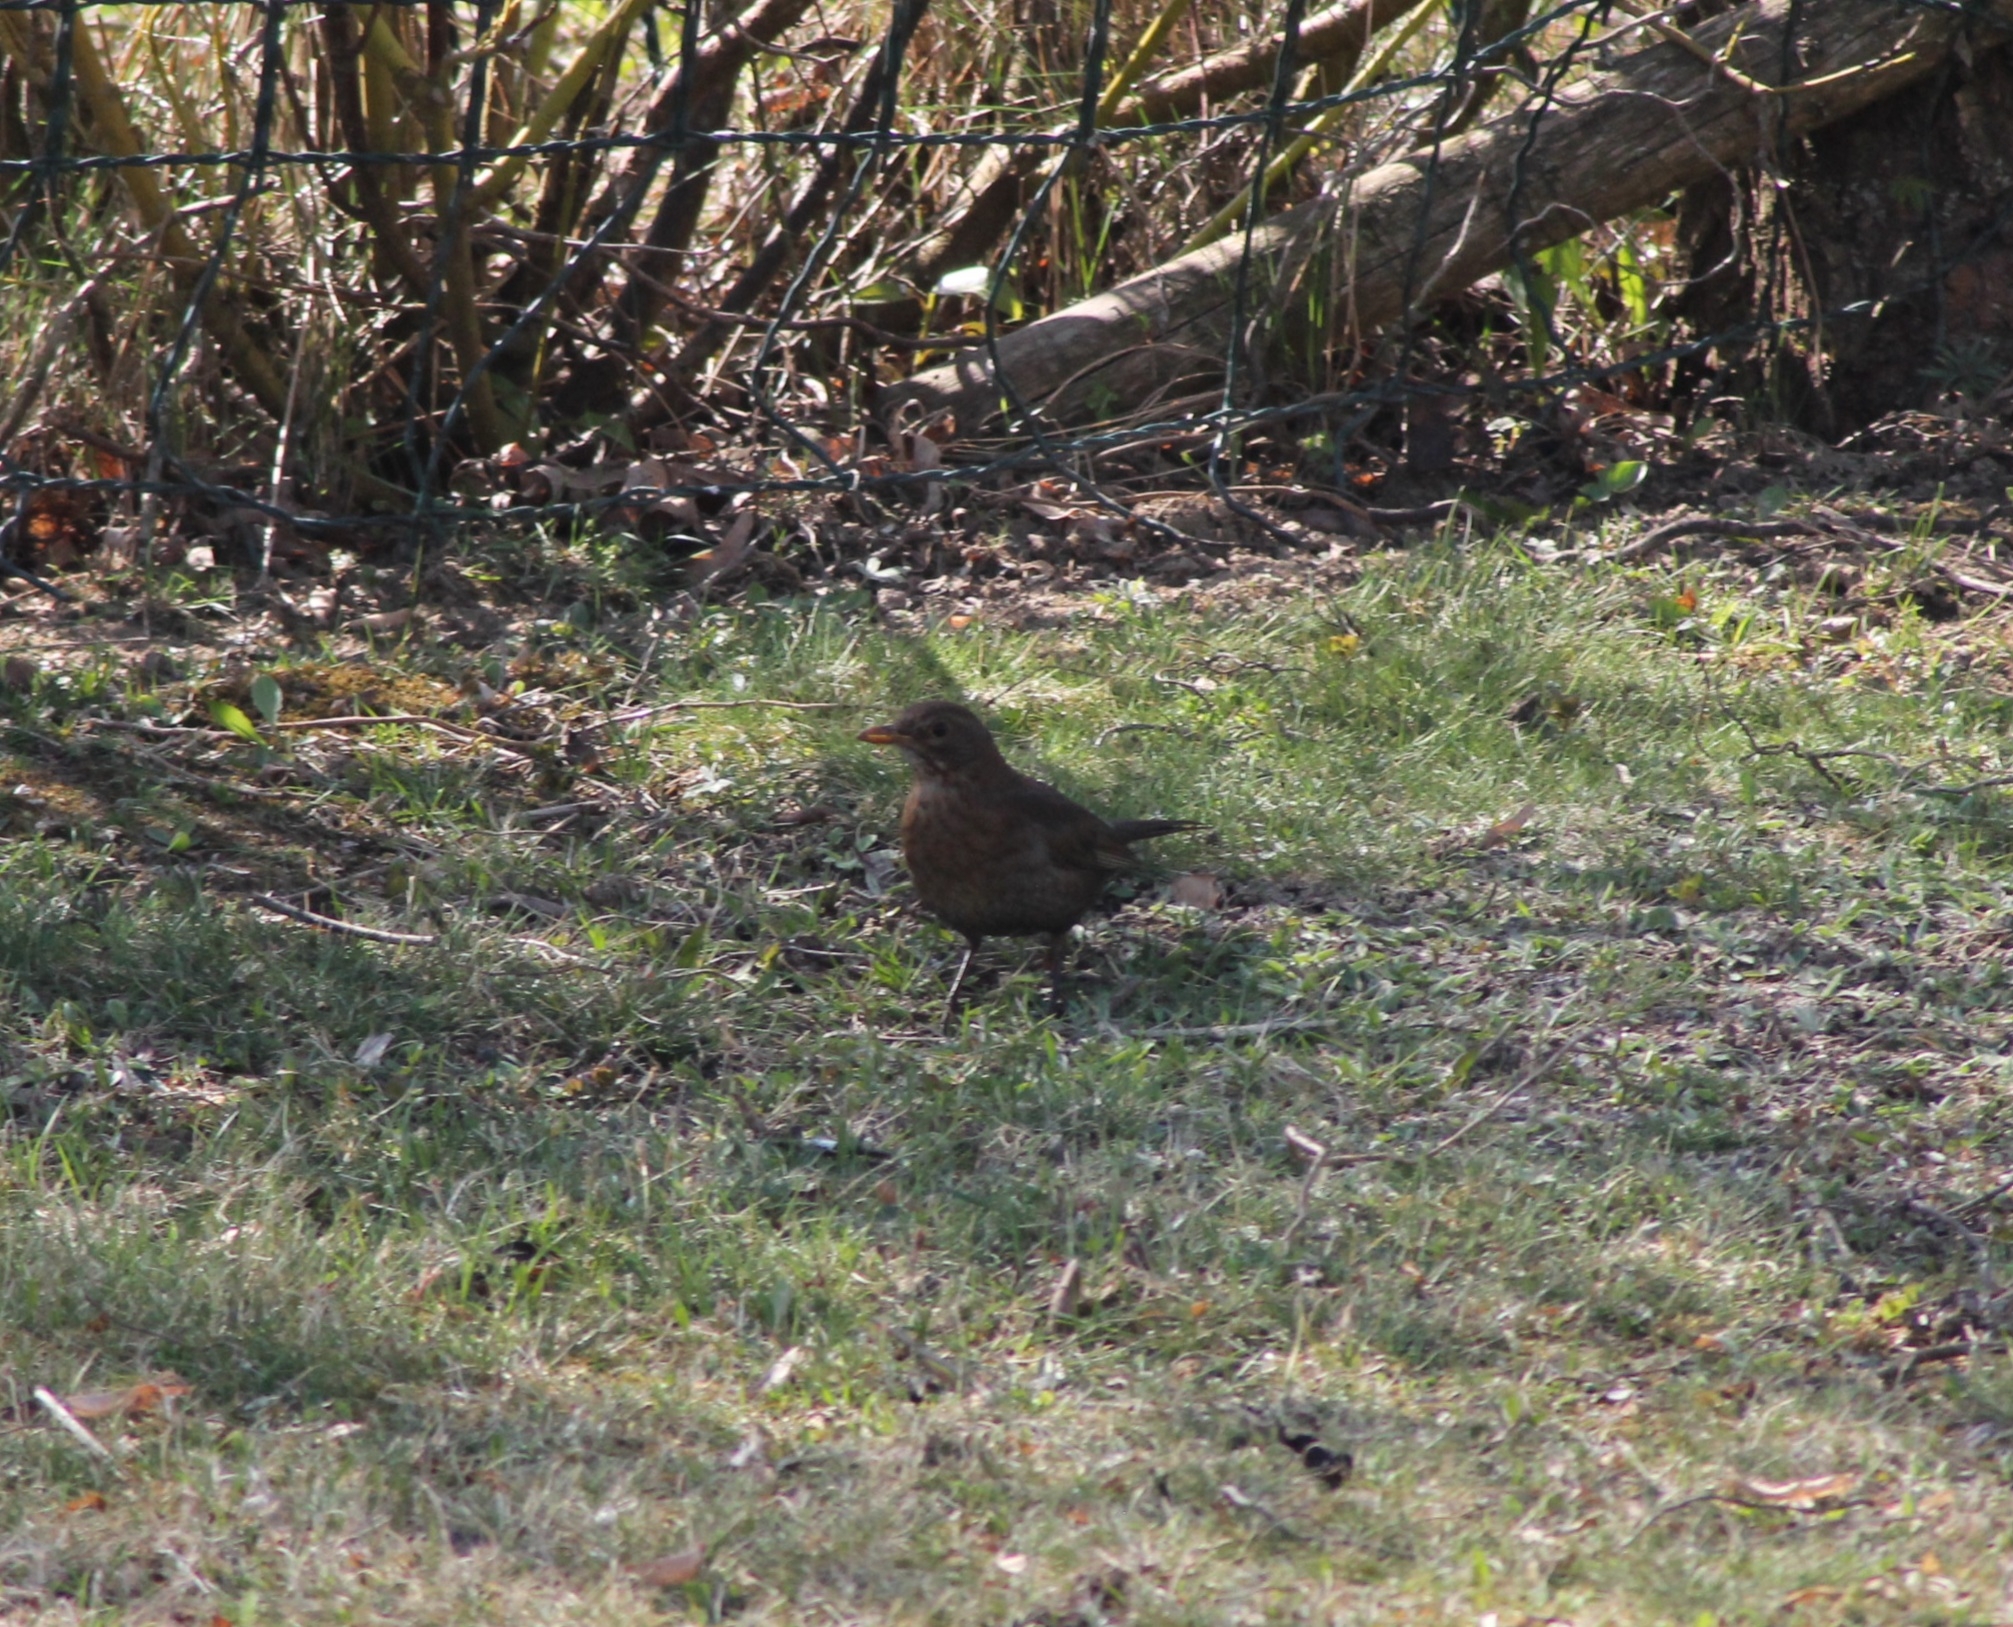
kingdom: Animalia
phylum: Chordata
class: Aves
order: Passeriformes
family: Turdidae
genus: Turdus
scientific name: Turdus merula
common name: Common blackbird
